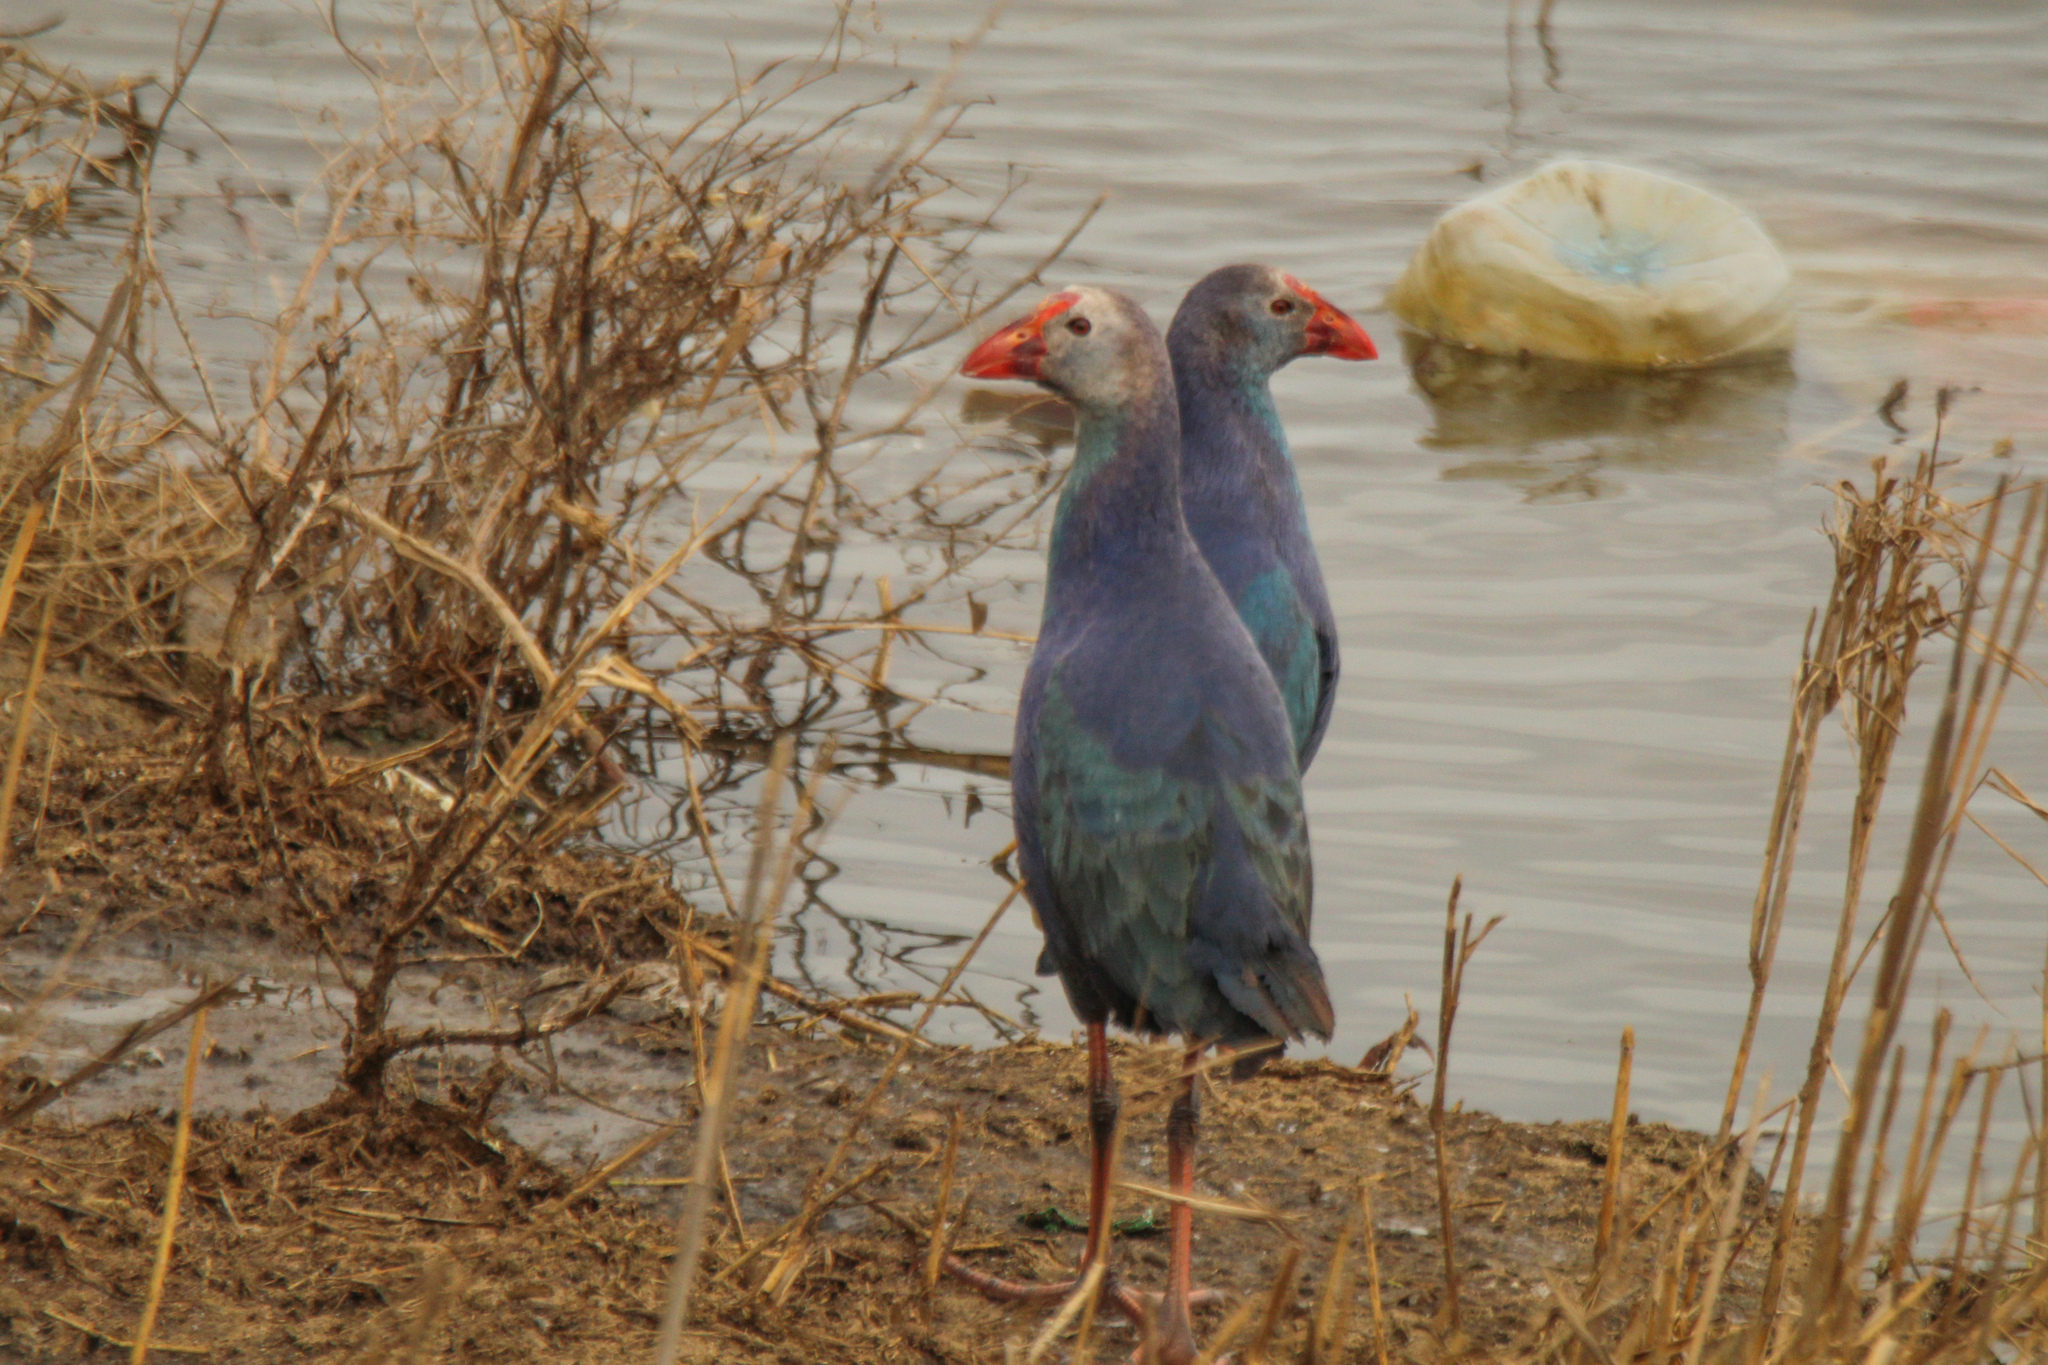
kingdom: Animalia
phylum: Chordata
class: Aves
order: Gruiformes
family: Rallidae
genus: Porphyrio
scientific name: Porphyrio porphyrio
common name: Purple swamphen
